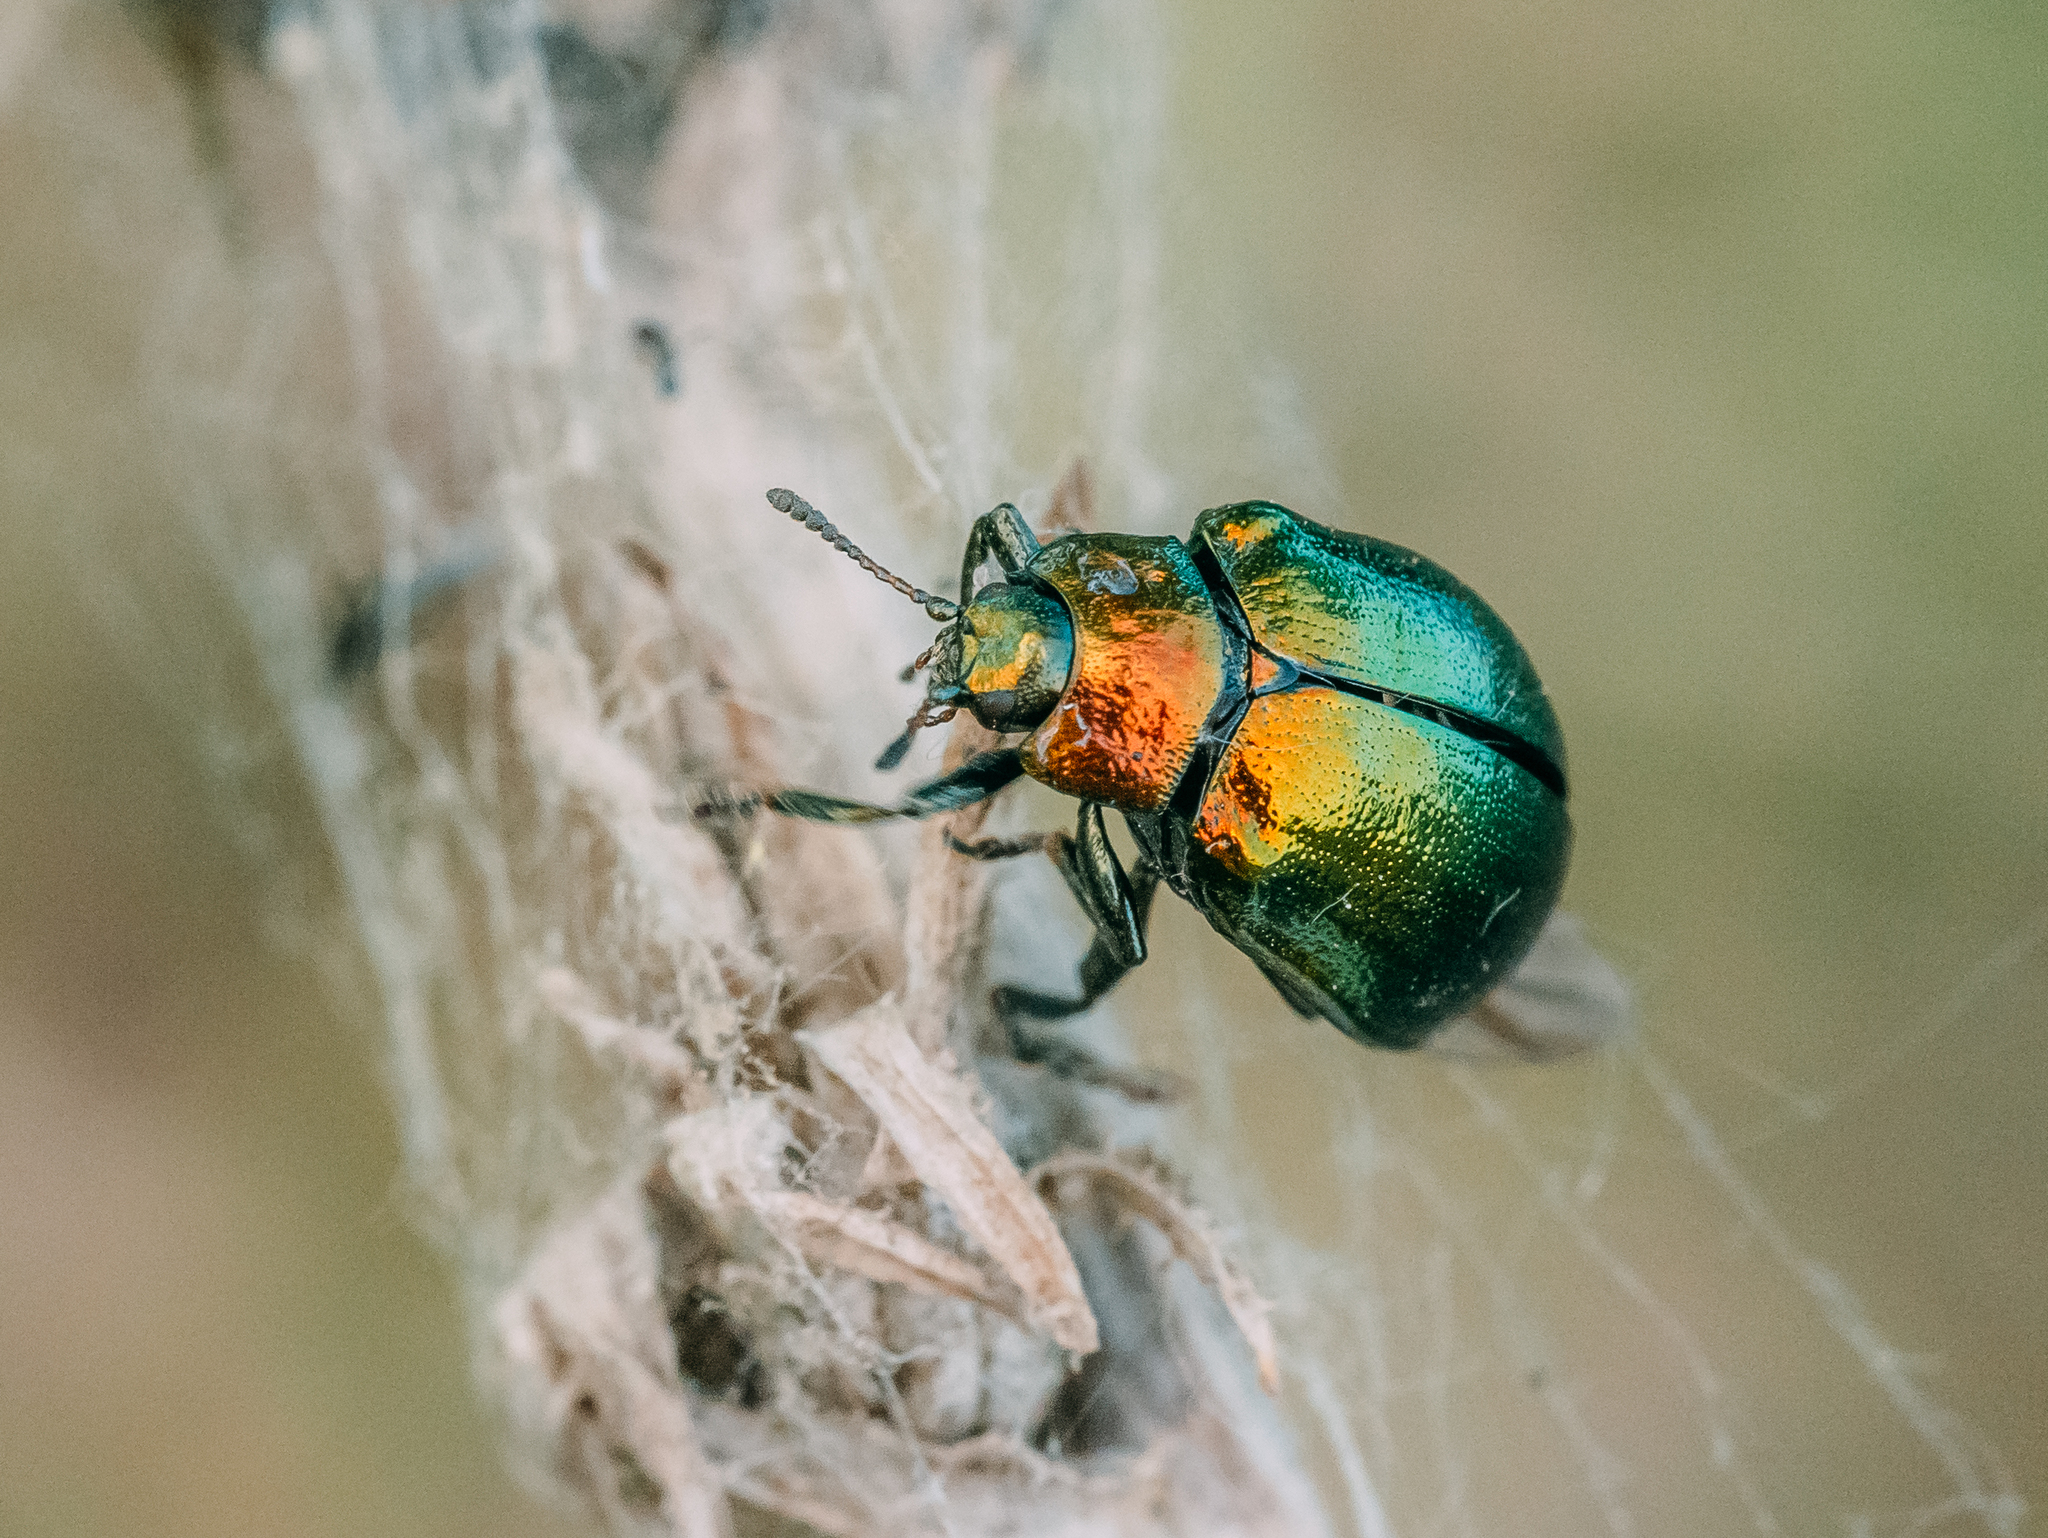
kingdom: Animalia
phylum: Arthropoda
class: Insecta
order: Coleoptera
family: Chrysomelidae
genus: Plagiosterna
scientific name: Plagiosterna aenea
